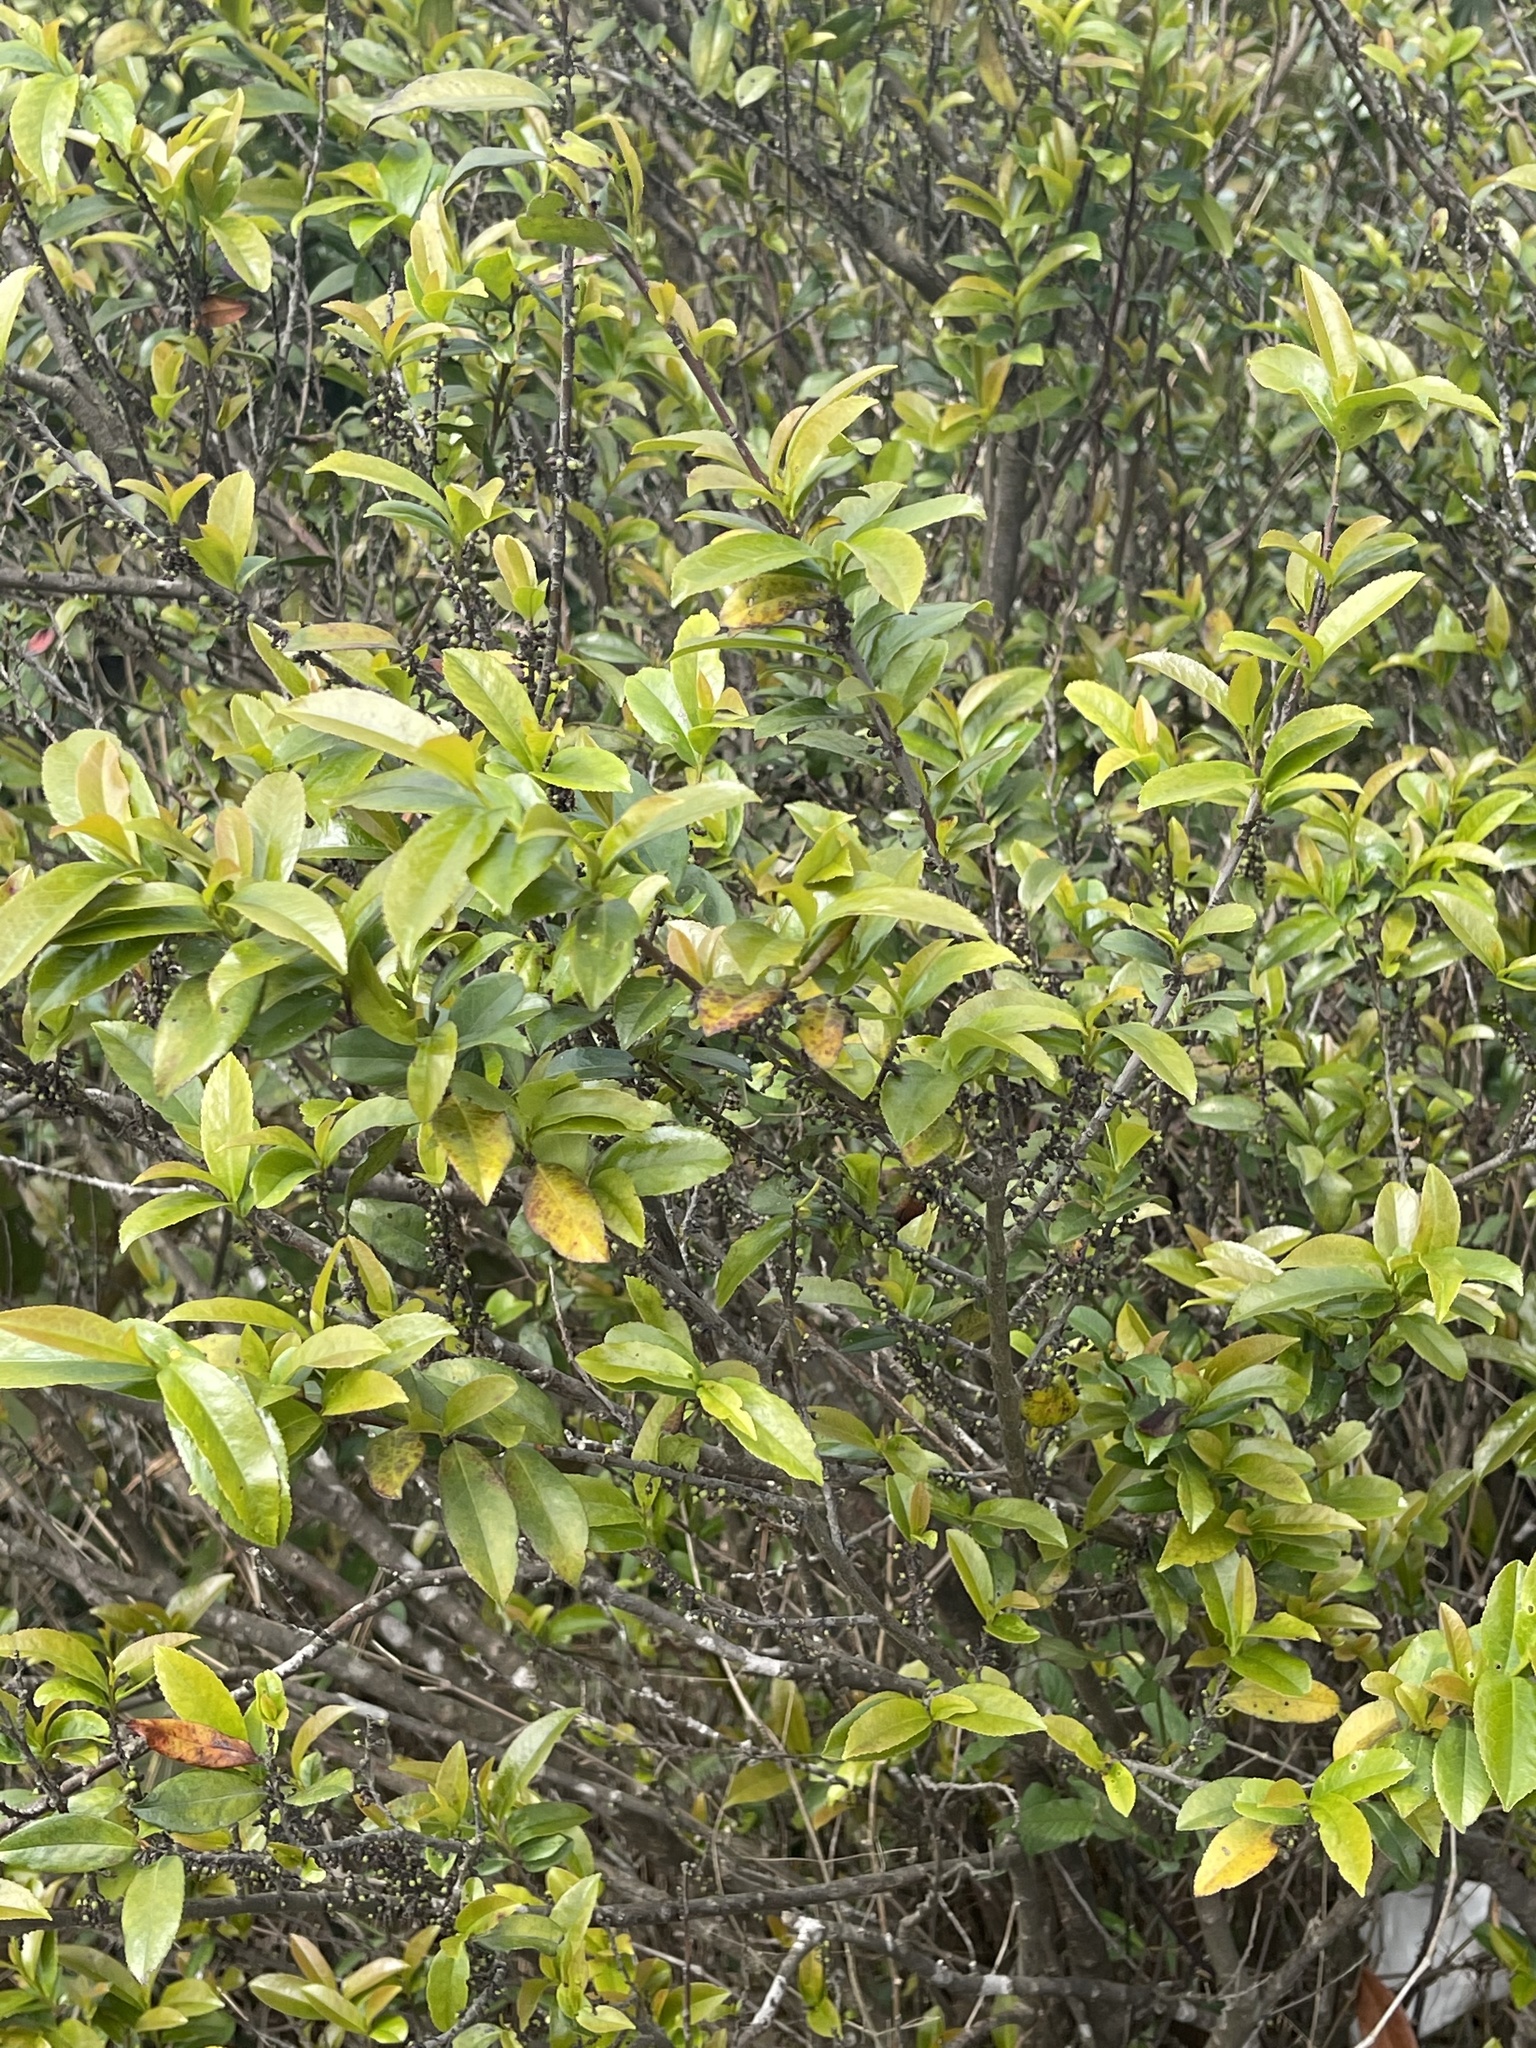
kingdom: Plantae
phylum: Tracheophyta
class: Magnoliopsida
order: Ericales
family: Pentaphylacaceae
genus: Eurya
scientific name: Eurya nitida
